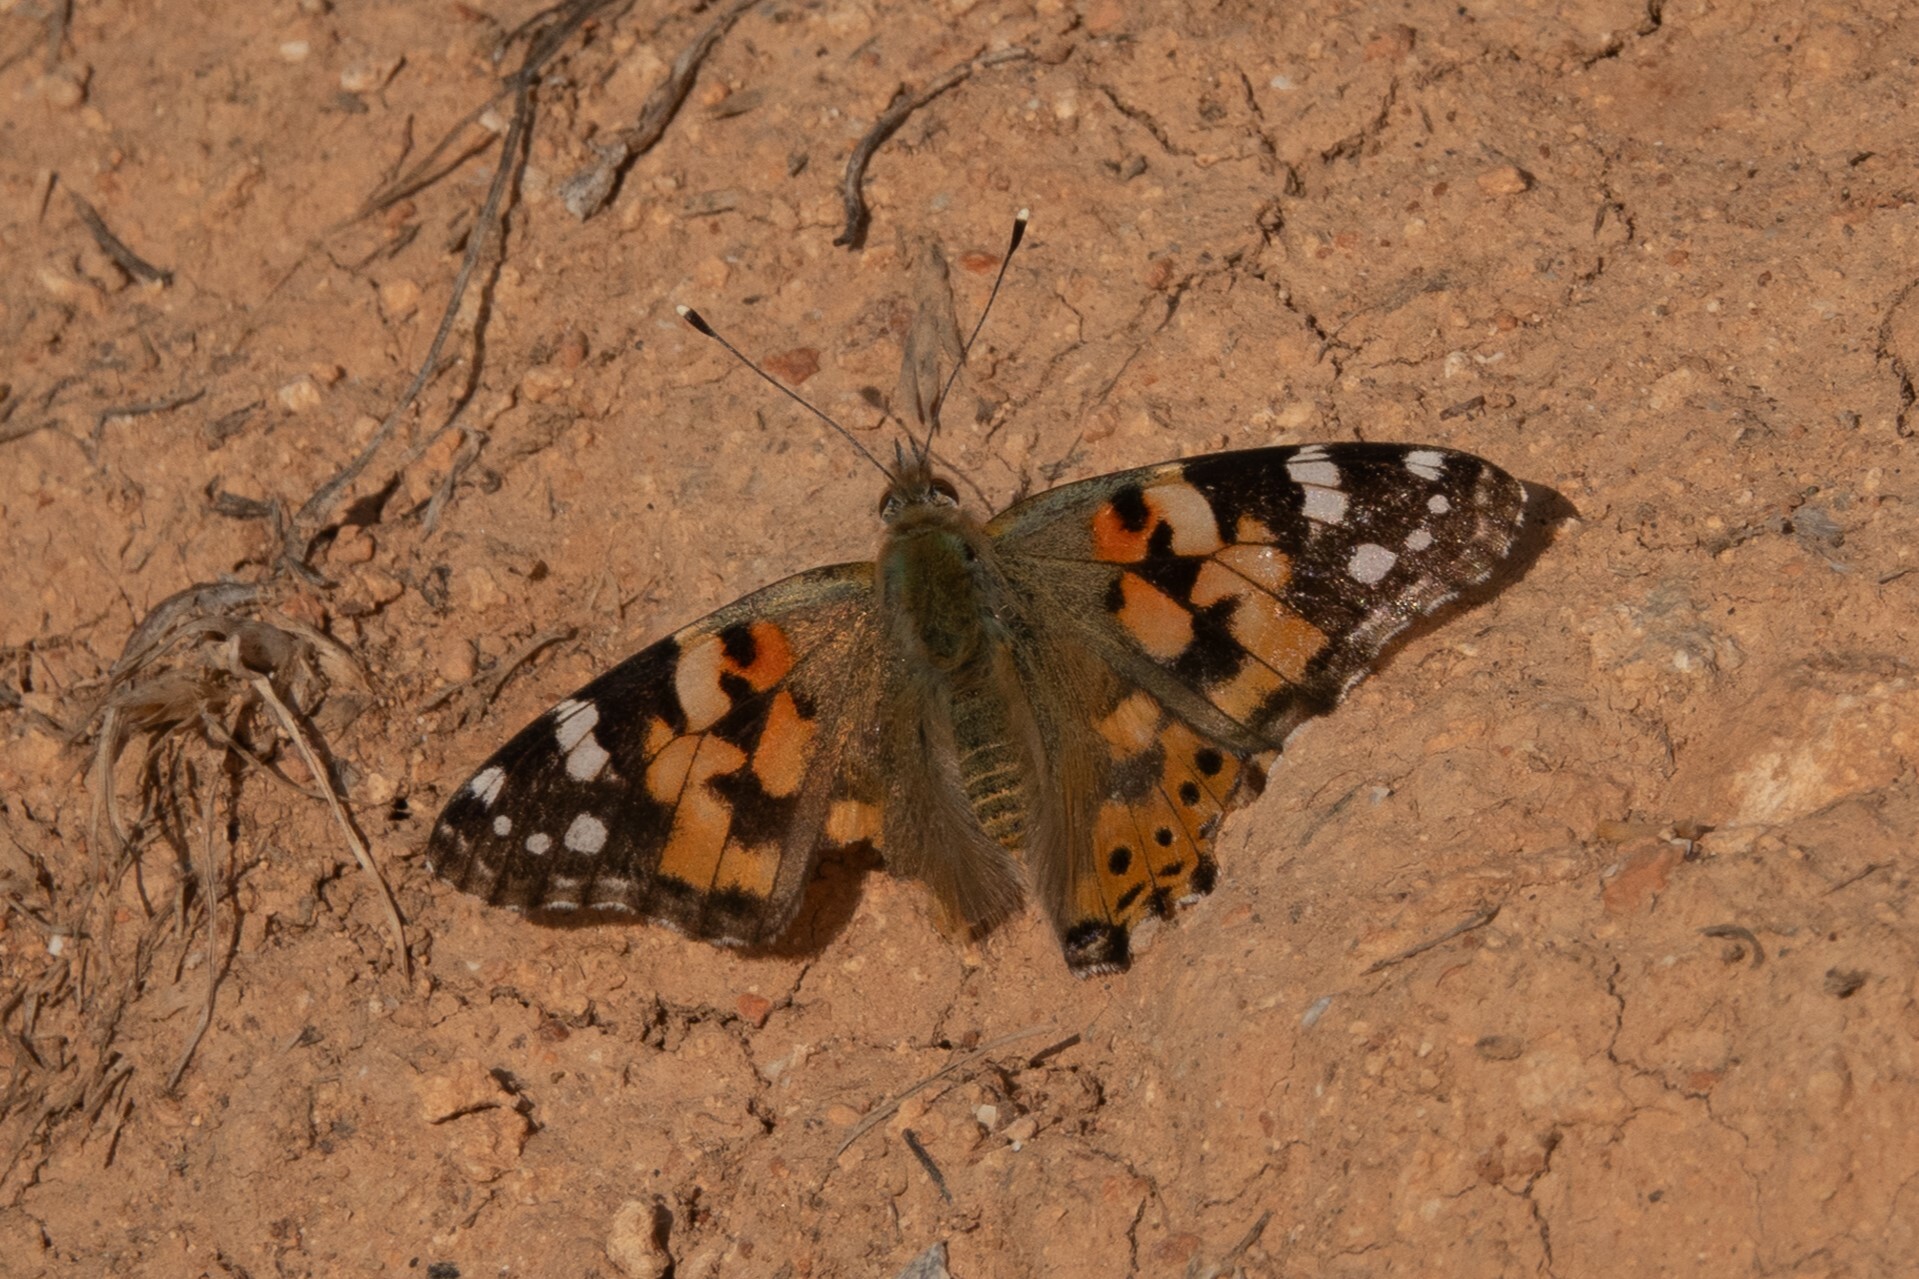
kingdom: Animalia
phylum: Arthropoda
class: Insecta
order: Lepidoptera
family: Nymphalidae
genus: Vanessa
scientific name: Vanessa cardui
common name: Painted lady
